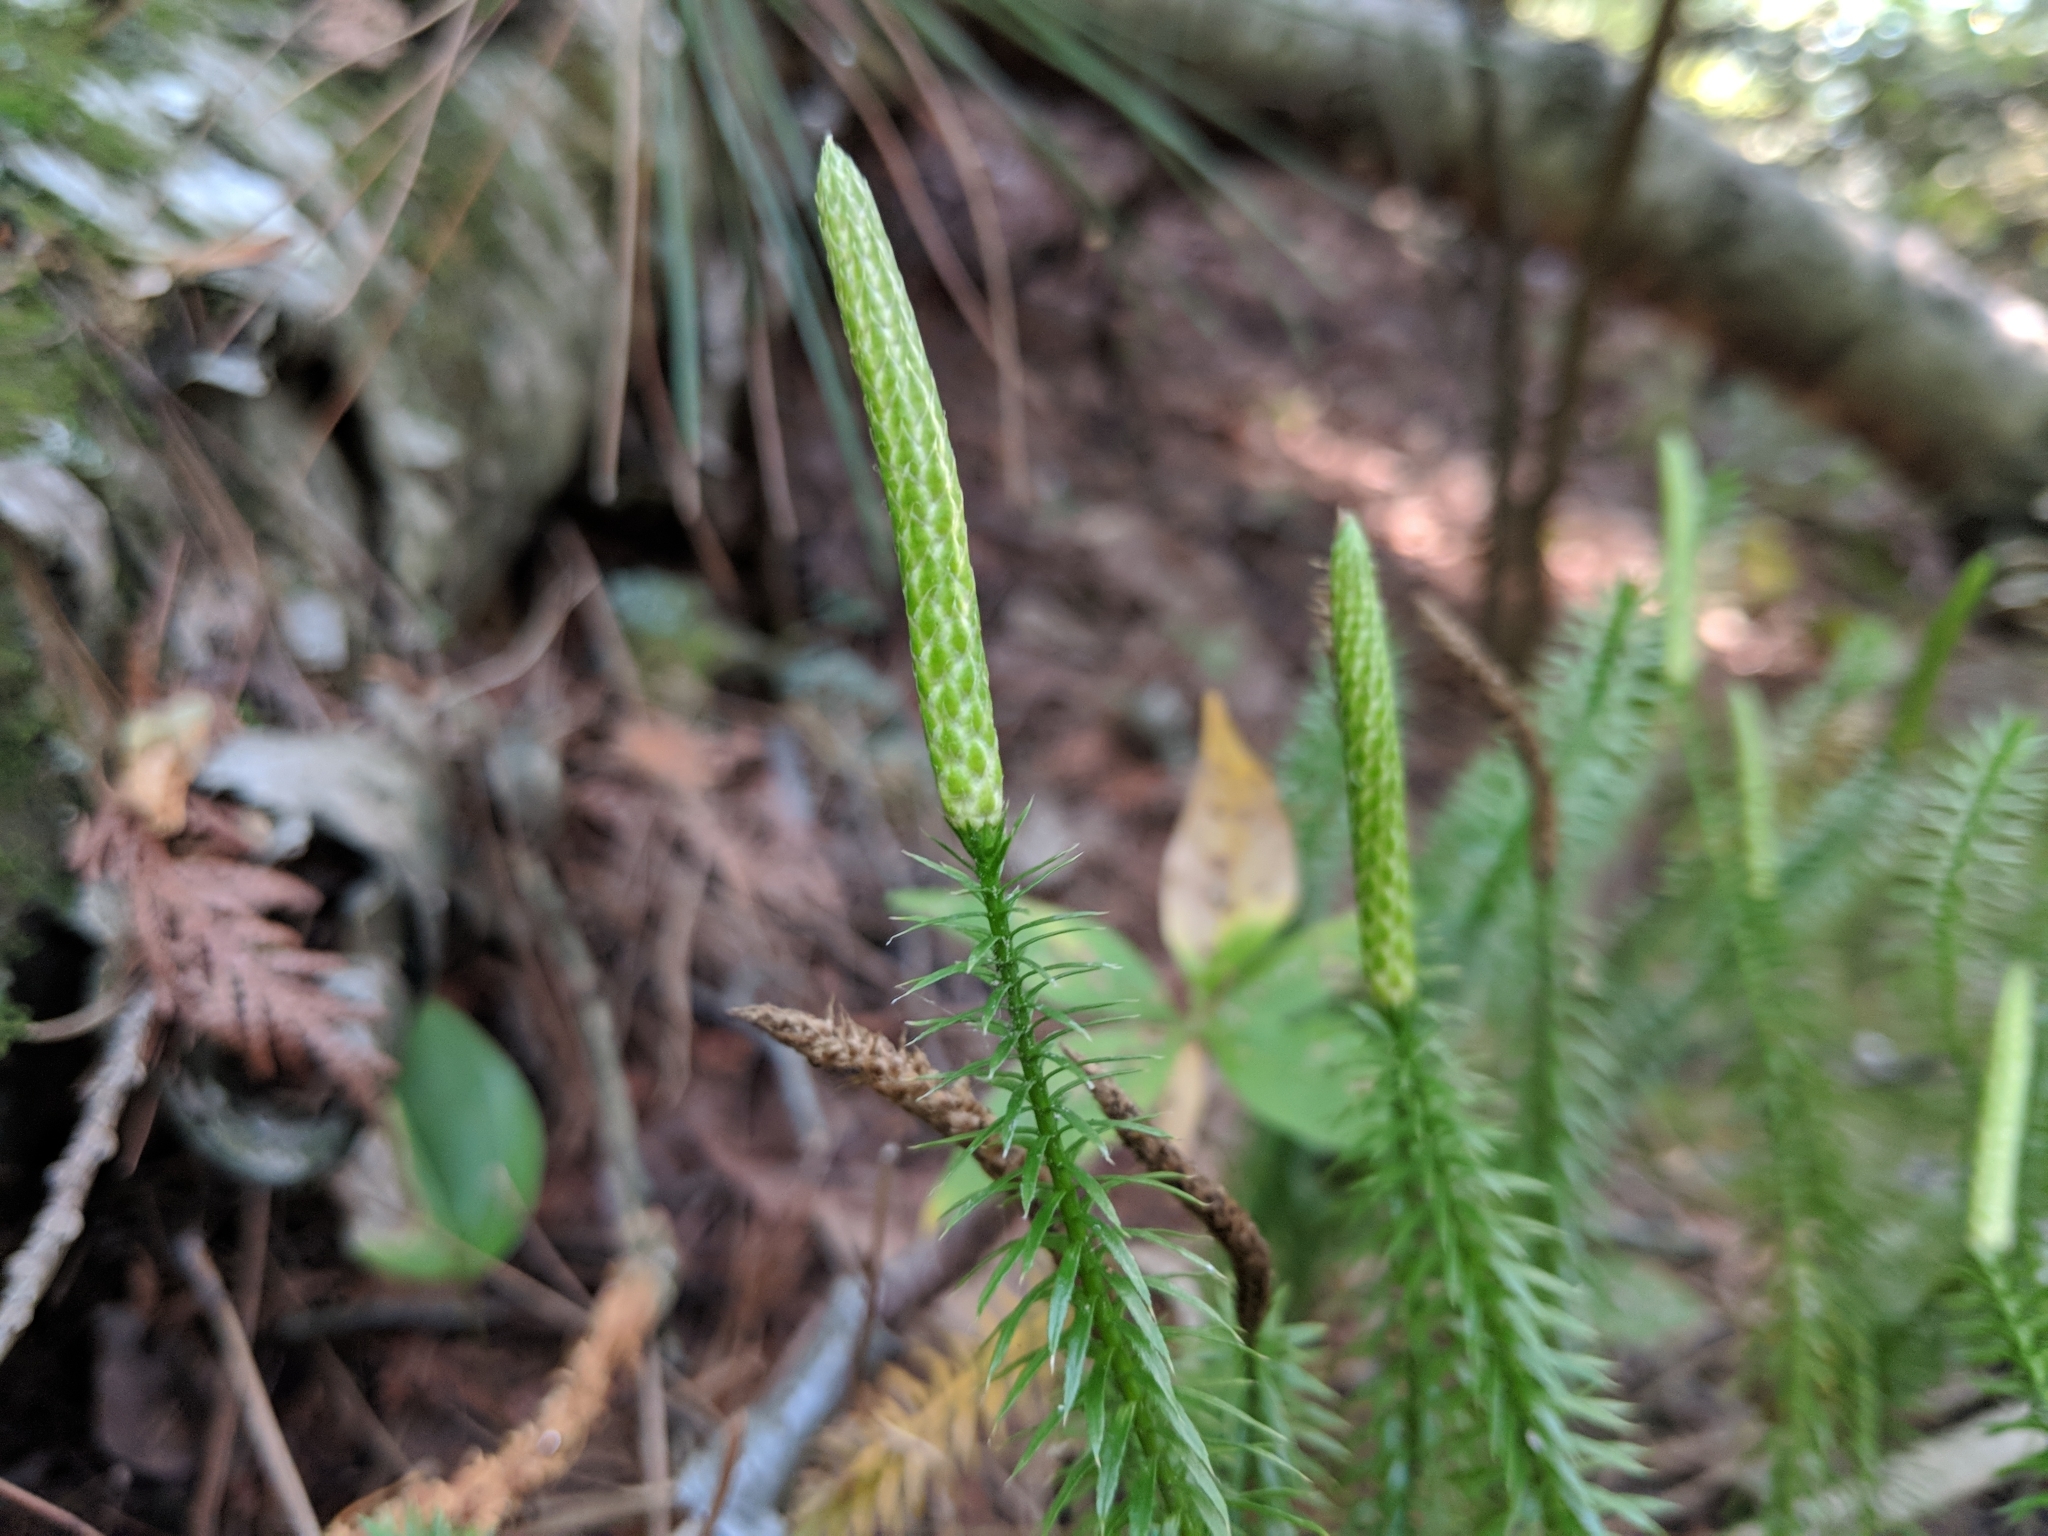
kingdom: Plantae
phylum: Tracheophyta
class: Lycopodiopsida
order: Lycopodiales
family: Lycopodiaceae
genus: Spinulum
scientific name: Spinulum annotinum
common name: Interrupted club-moss
